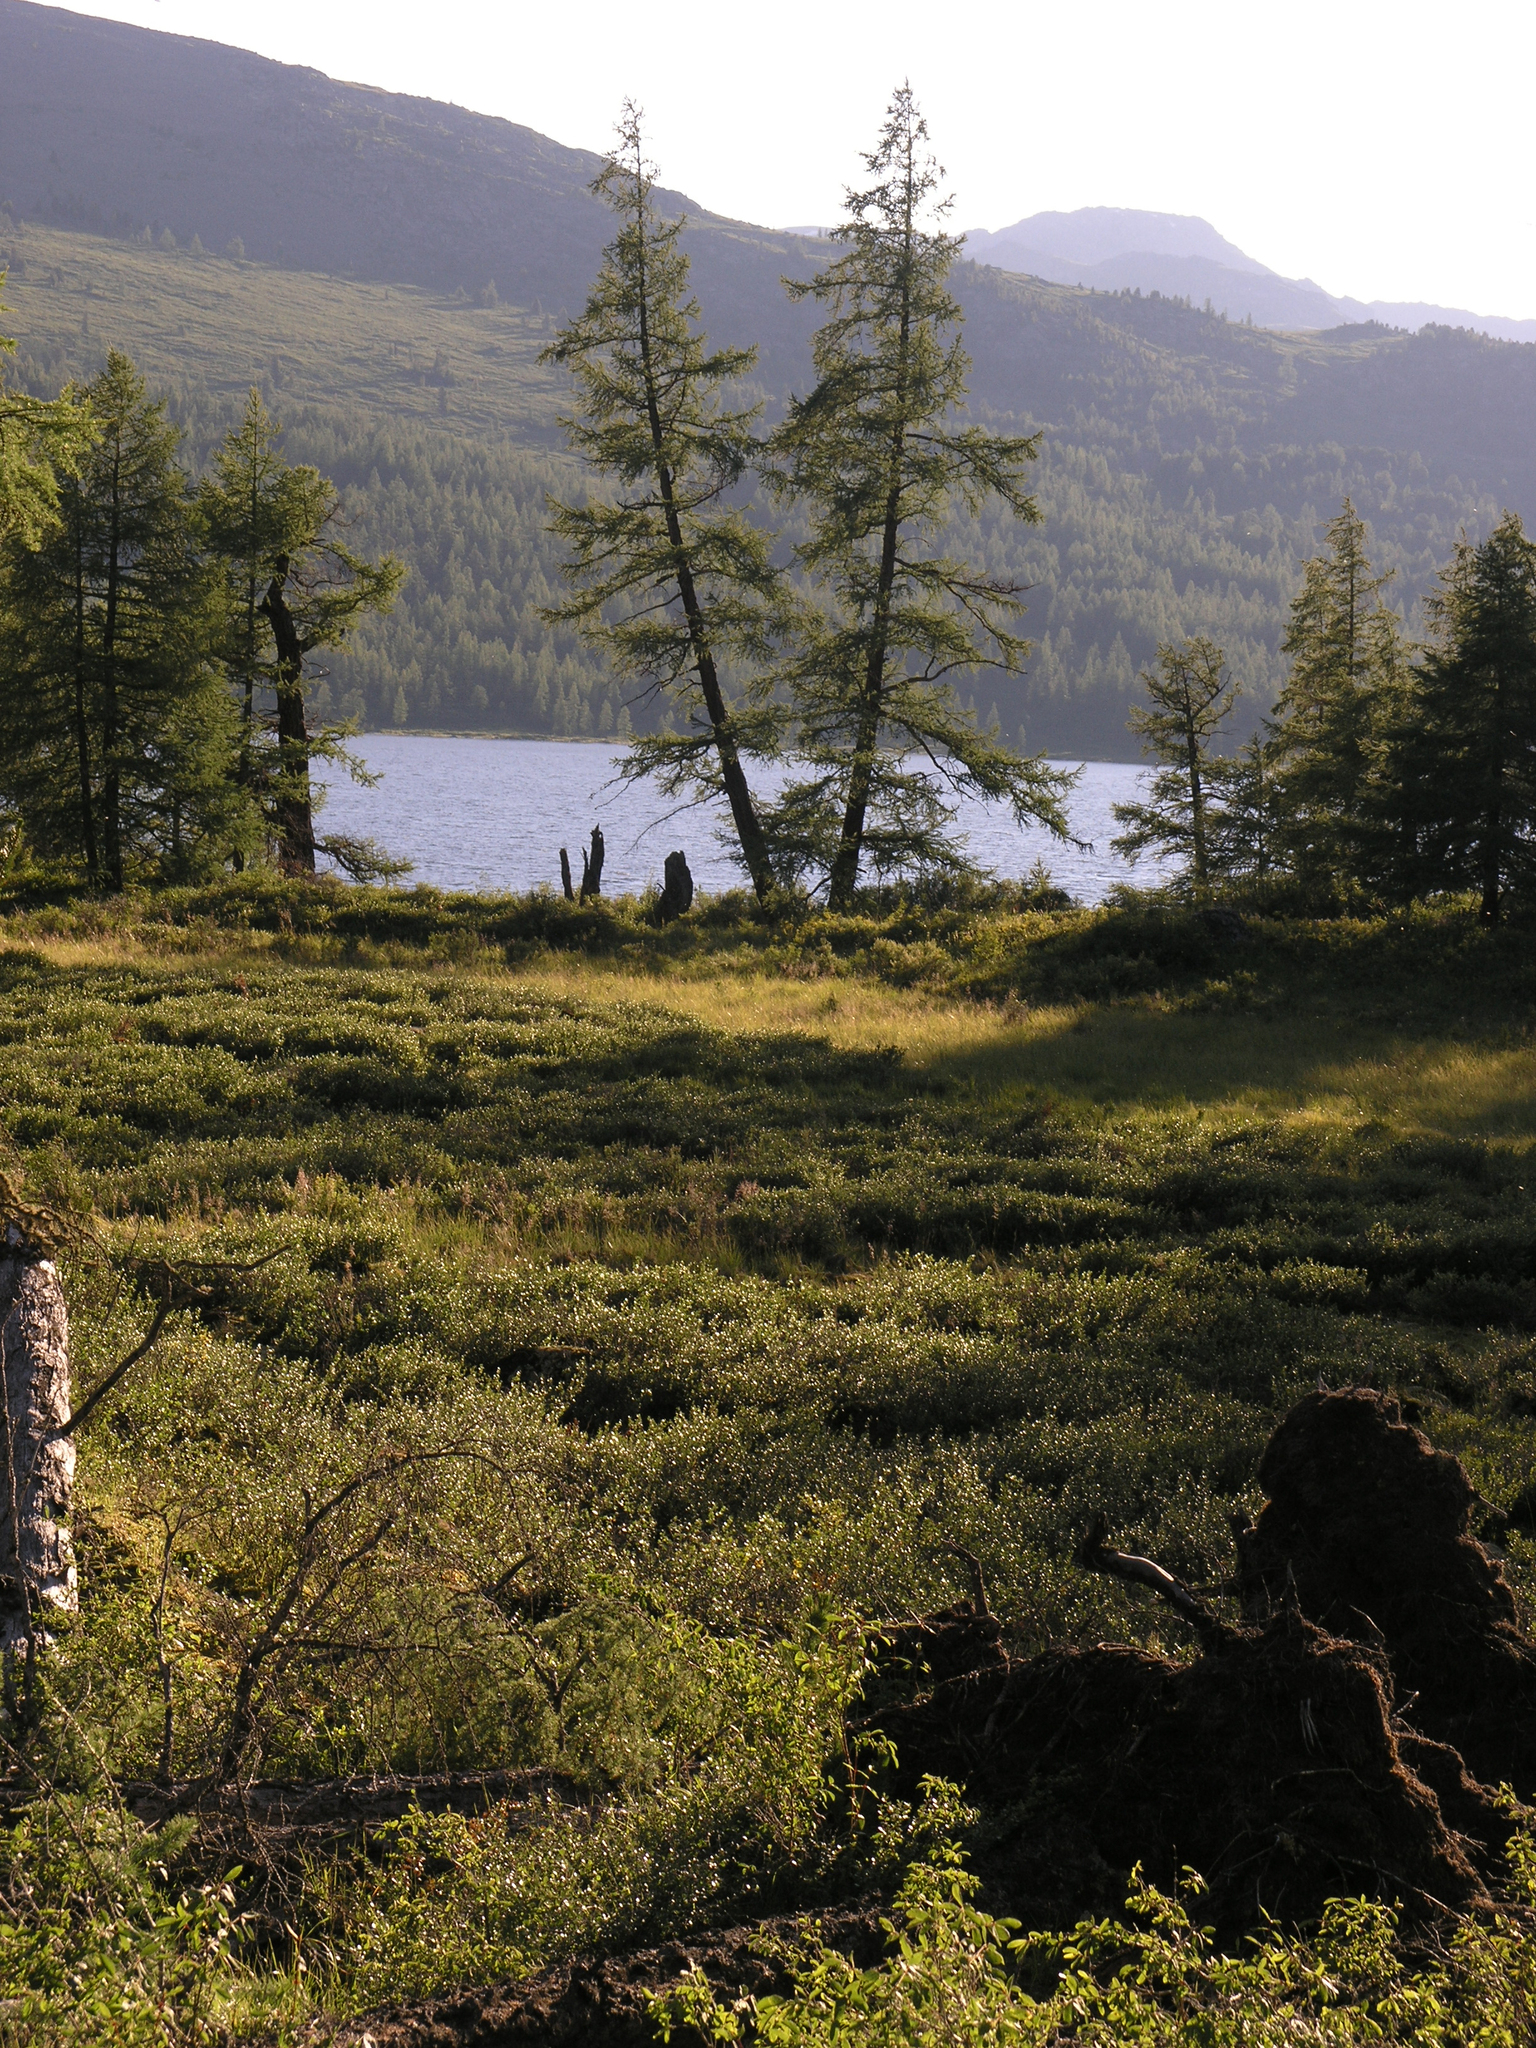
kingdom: Plantae
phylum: Tracheophyta
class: Pinopsida
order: Pinales
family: Pinaceae
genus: Larix
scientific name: Larix sibirica
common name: Siberian larch
